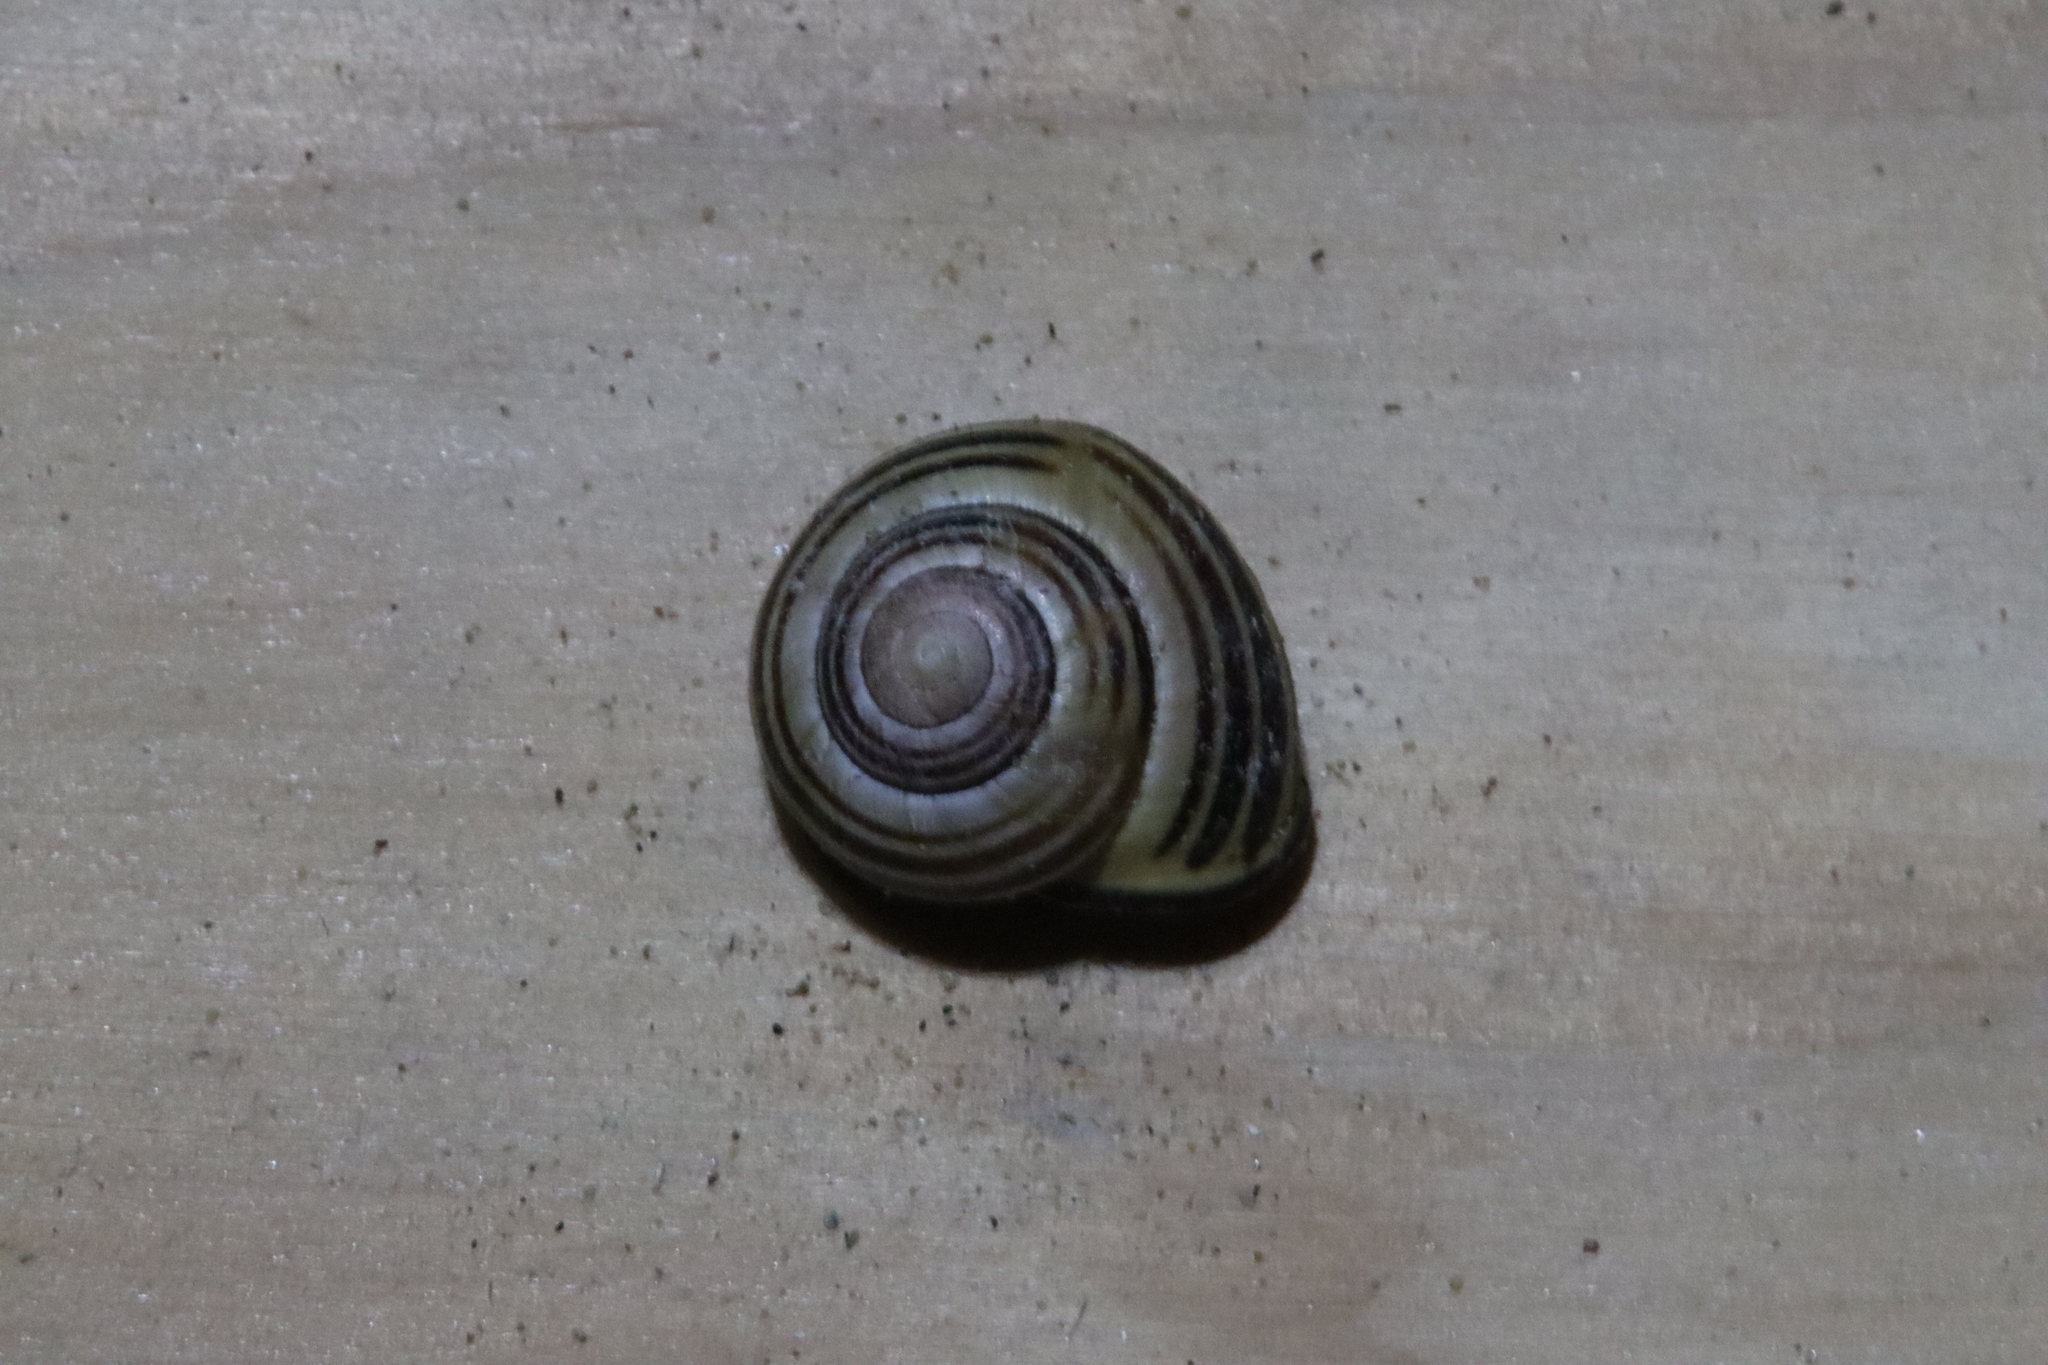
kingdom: Animalia
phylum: Mollusca
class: Gastropoda
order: Stylommatophora
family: Helicidae
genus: Cepaea
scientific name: Cepaea nemoralis
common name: Grovesnail
